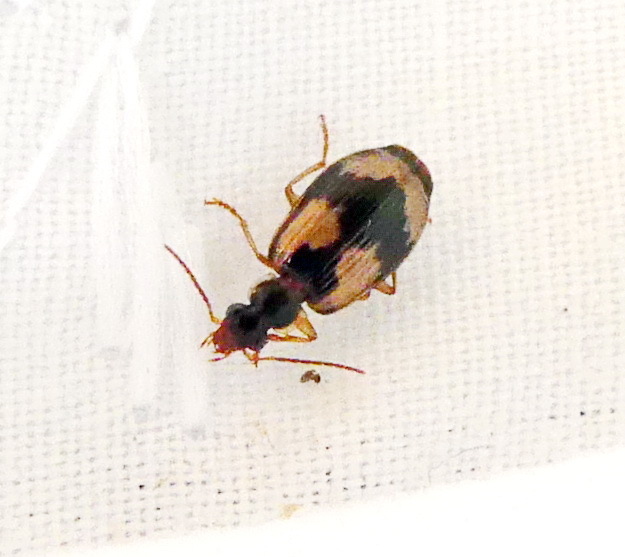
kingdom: Animalia
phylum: Arthropoda
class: Insecta
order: Coleoptera
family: Carabidae
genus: Lebia
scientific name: Lebia fuscata
